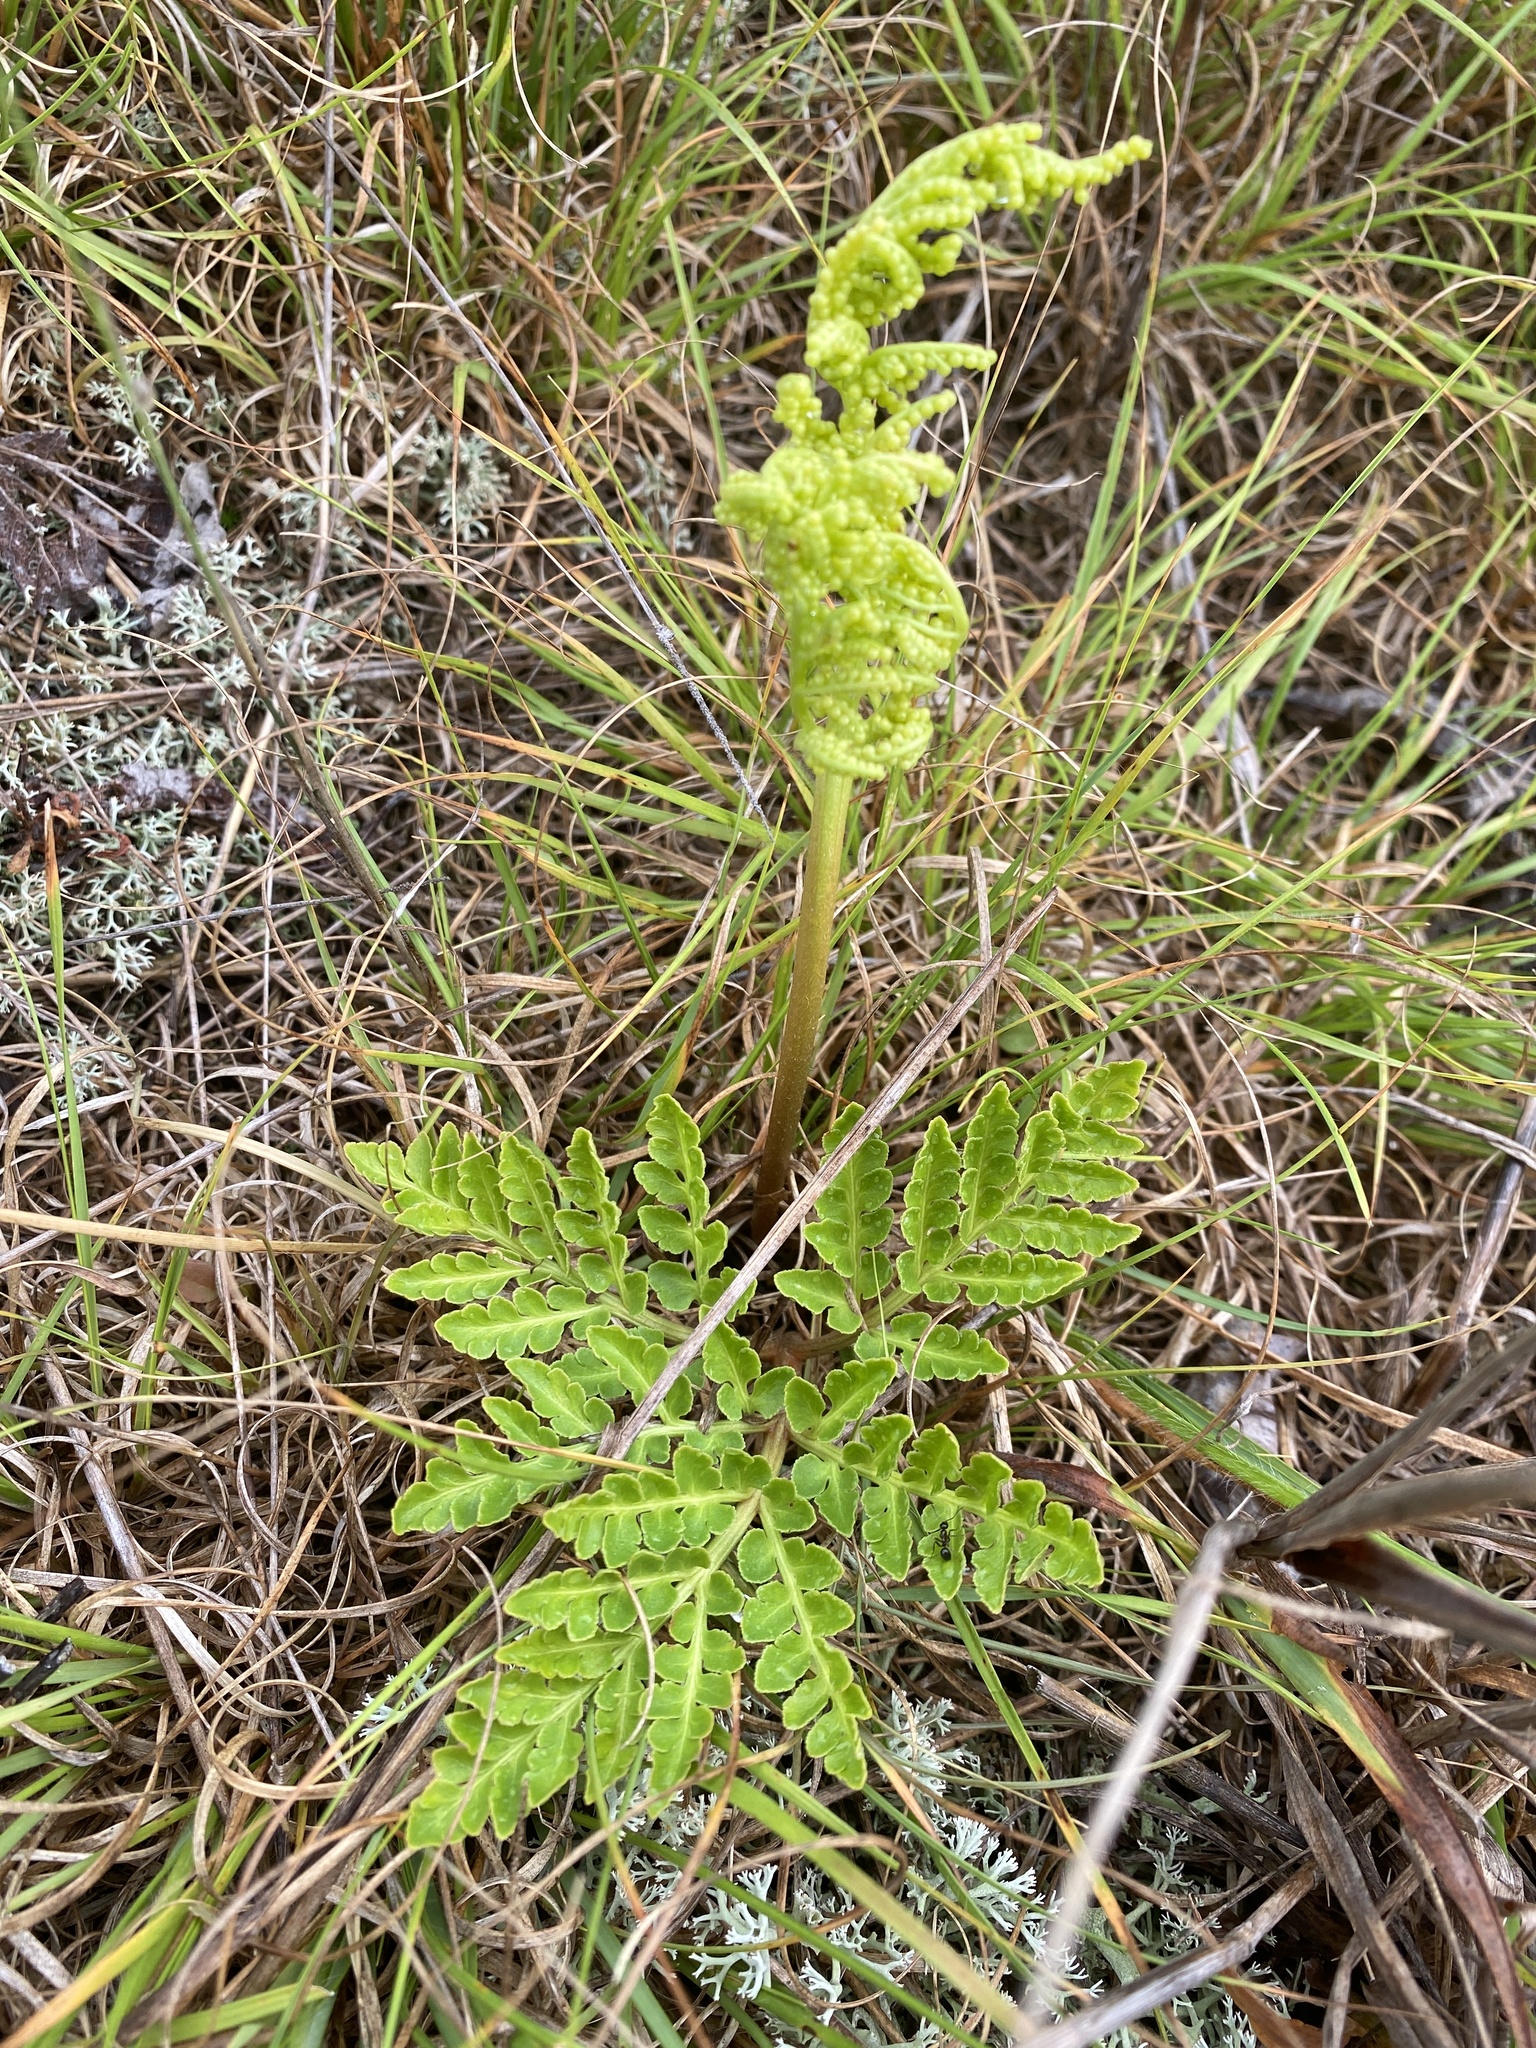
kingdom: Plantae
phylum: Tracheophyta
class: Polypodiopsida
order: Ophioglossales
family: Ophioglossaceae
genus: Sceptridium
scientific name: Sceptridium multifidum
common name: Leathery grape fern
